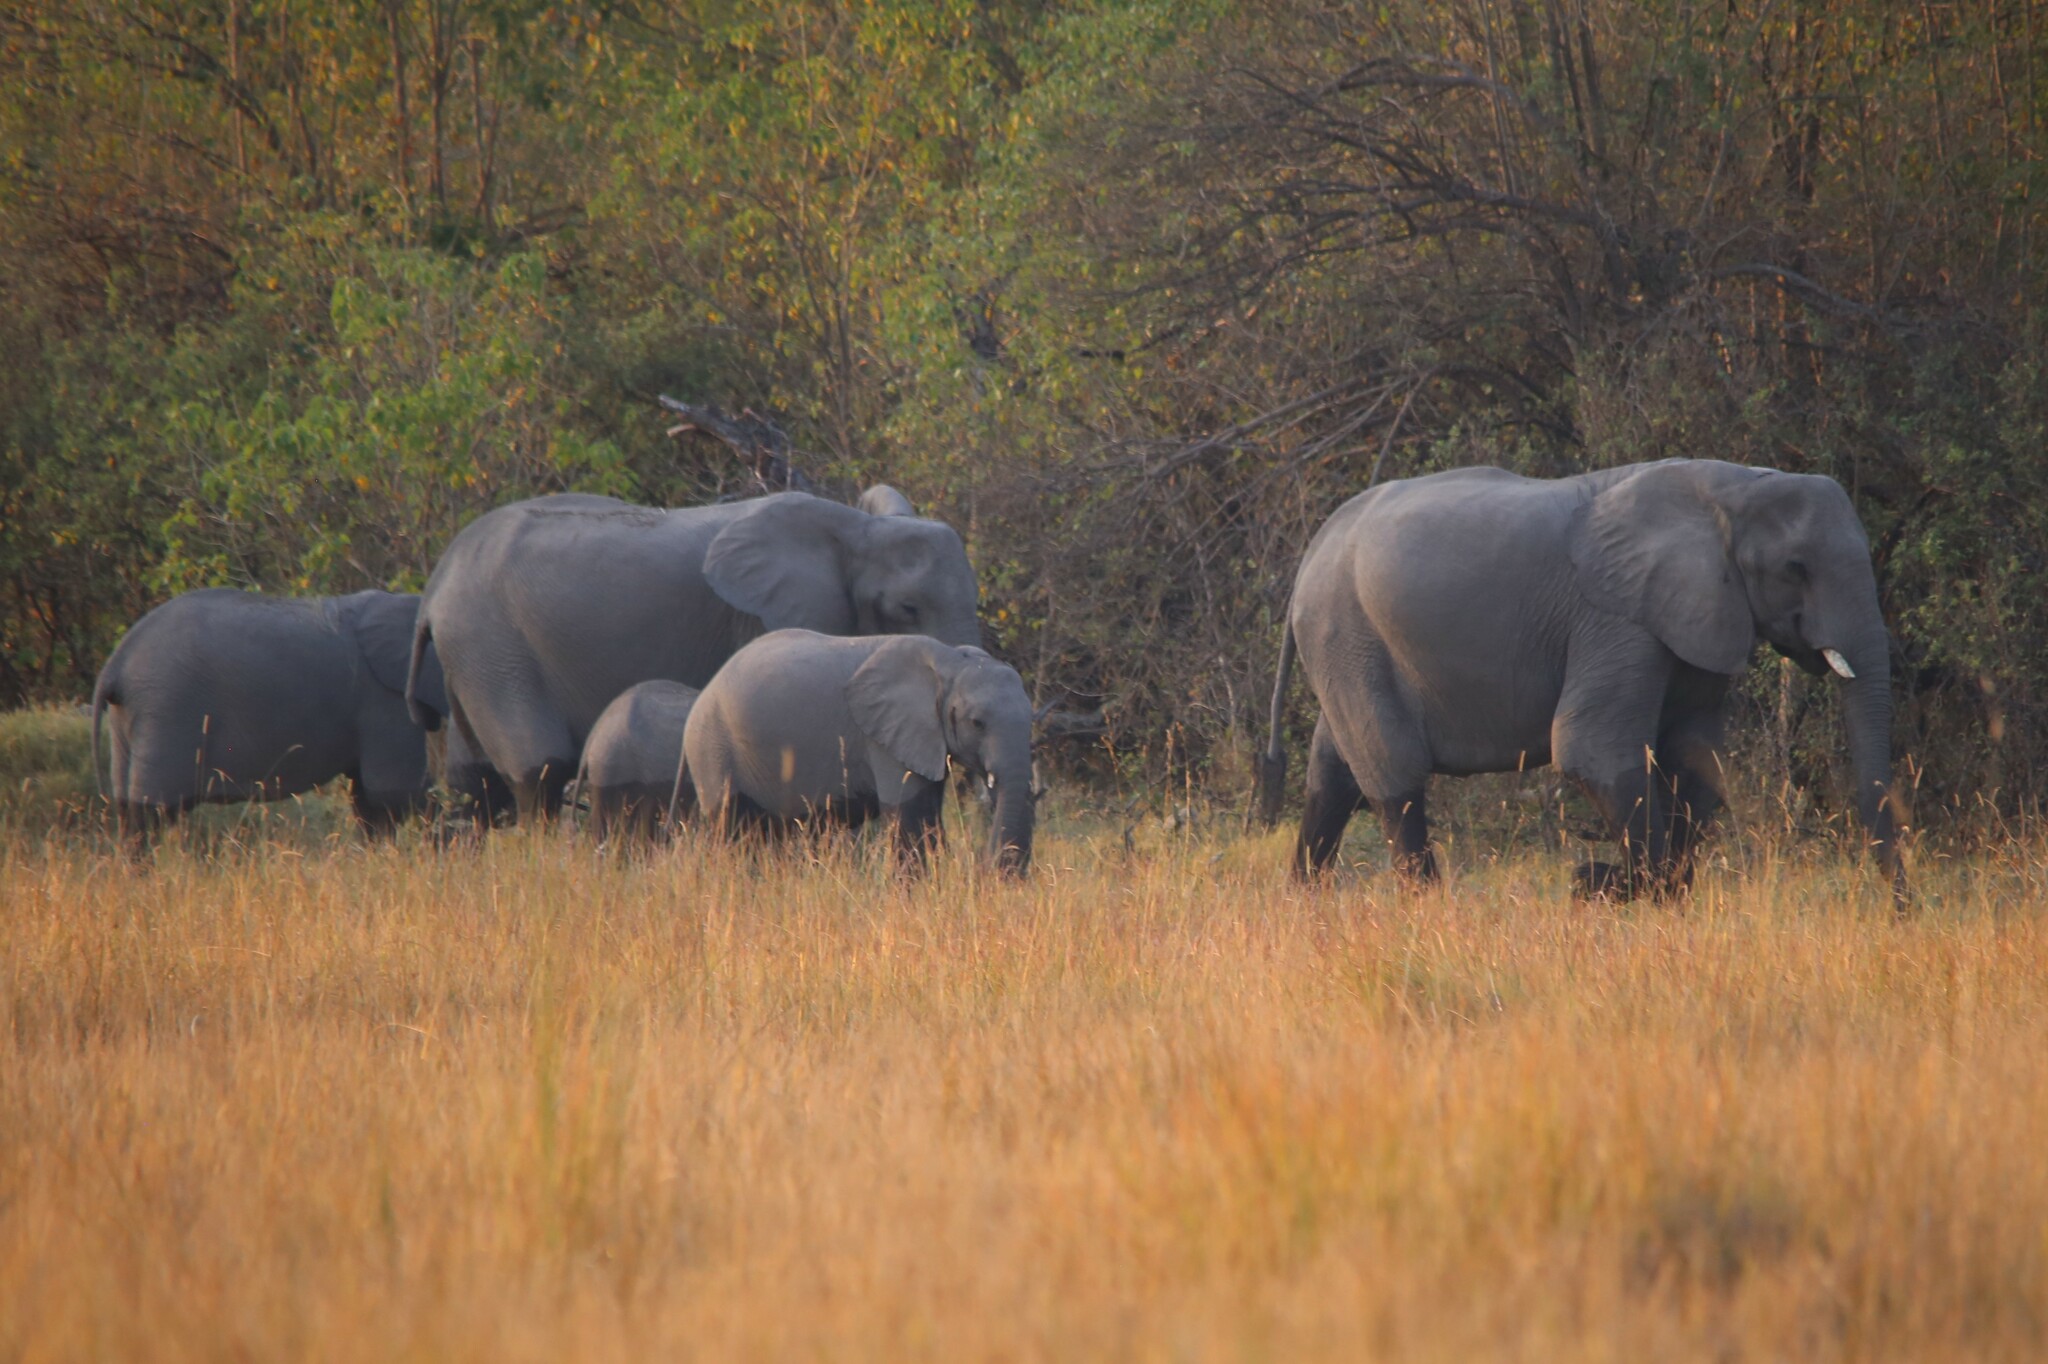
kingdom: Animalia
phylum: Chordata
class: Mammalia
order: Proboscidea
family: Elephantidae
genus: Loxodonta
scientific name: Loxodonta africana
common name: African elephant
